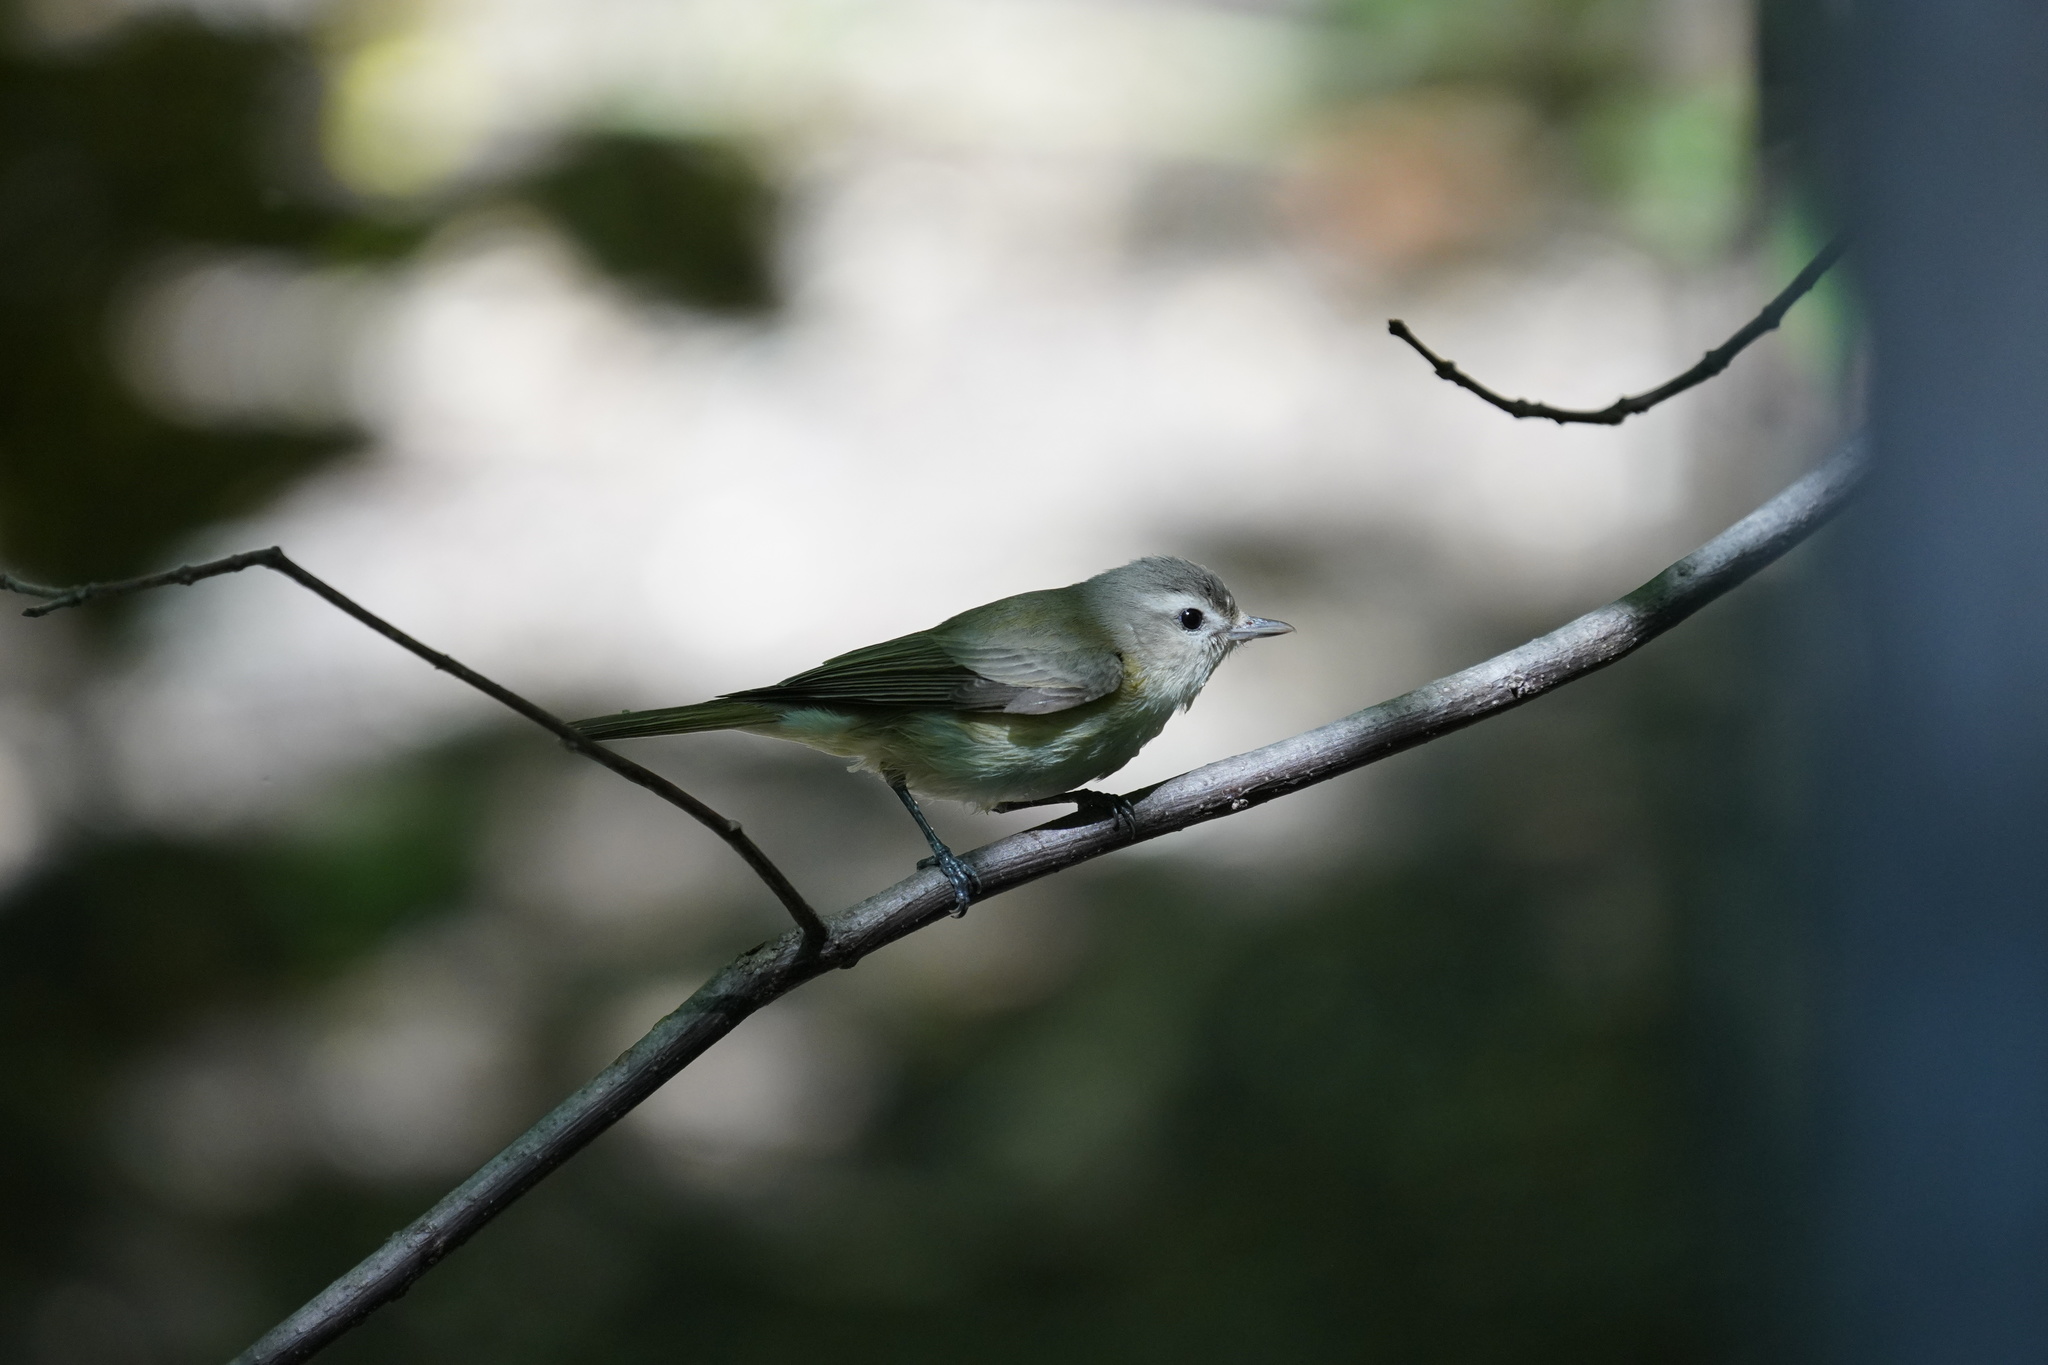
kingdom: Animalia
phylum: Chordata
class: Aves
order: Passeriformes
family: Vireonidae
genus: Vireo
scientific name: Vireo gilvus
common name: Warbling vireo
